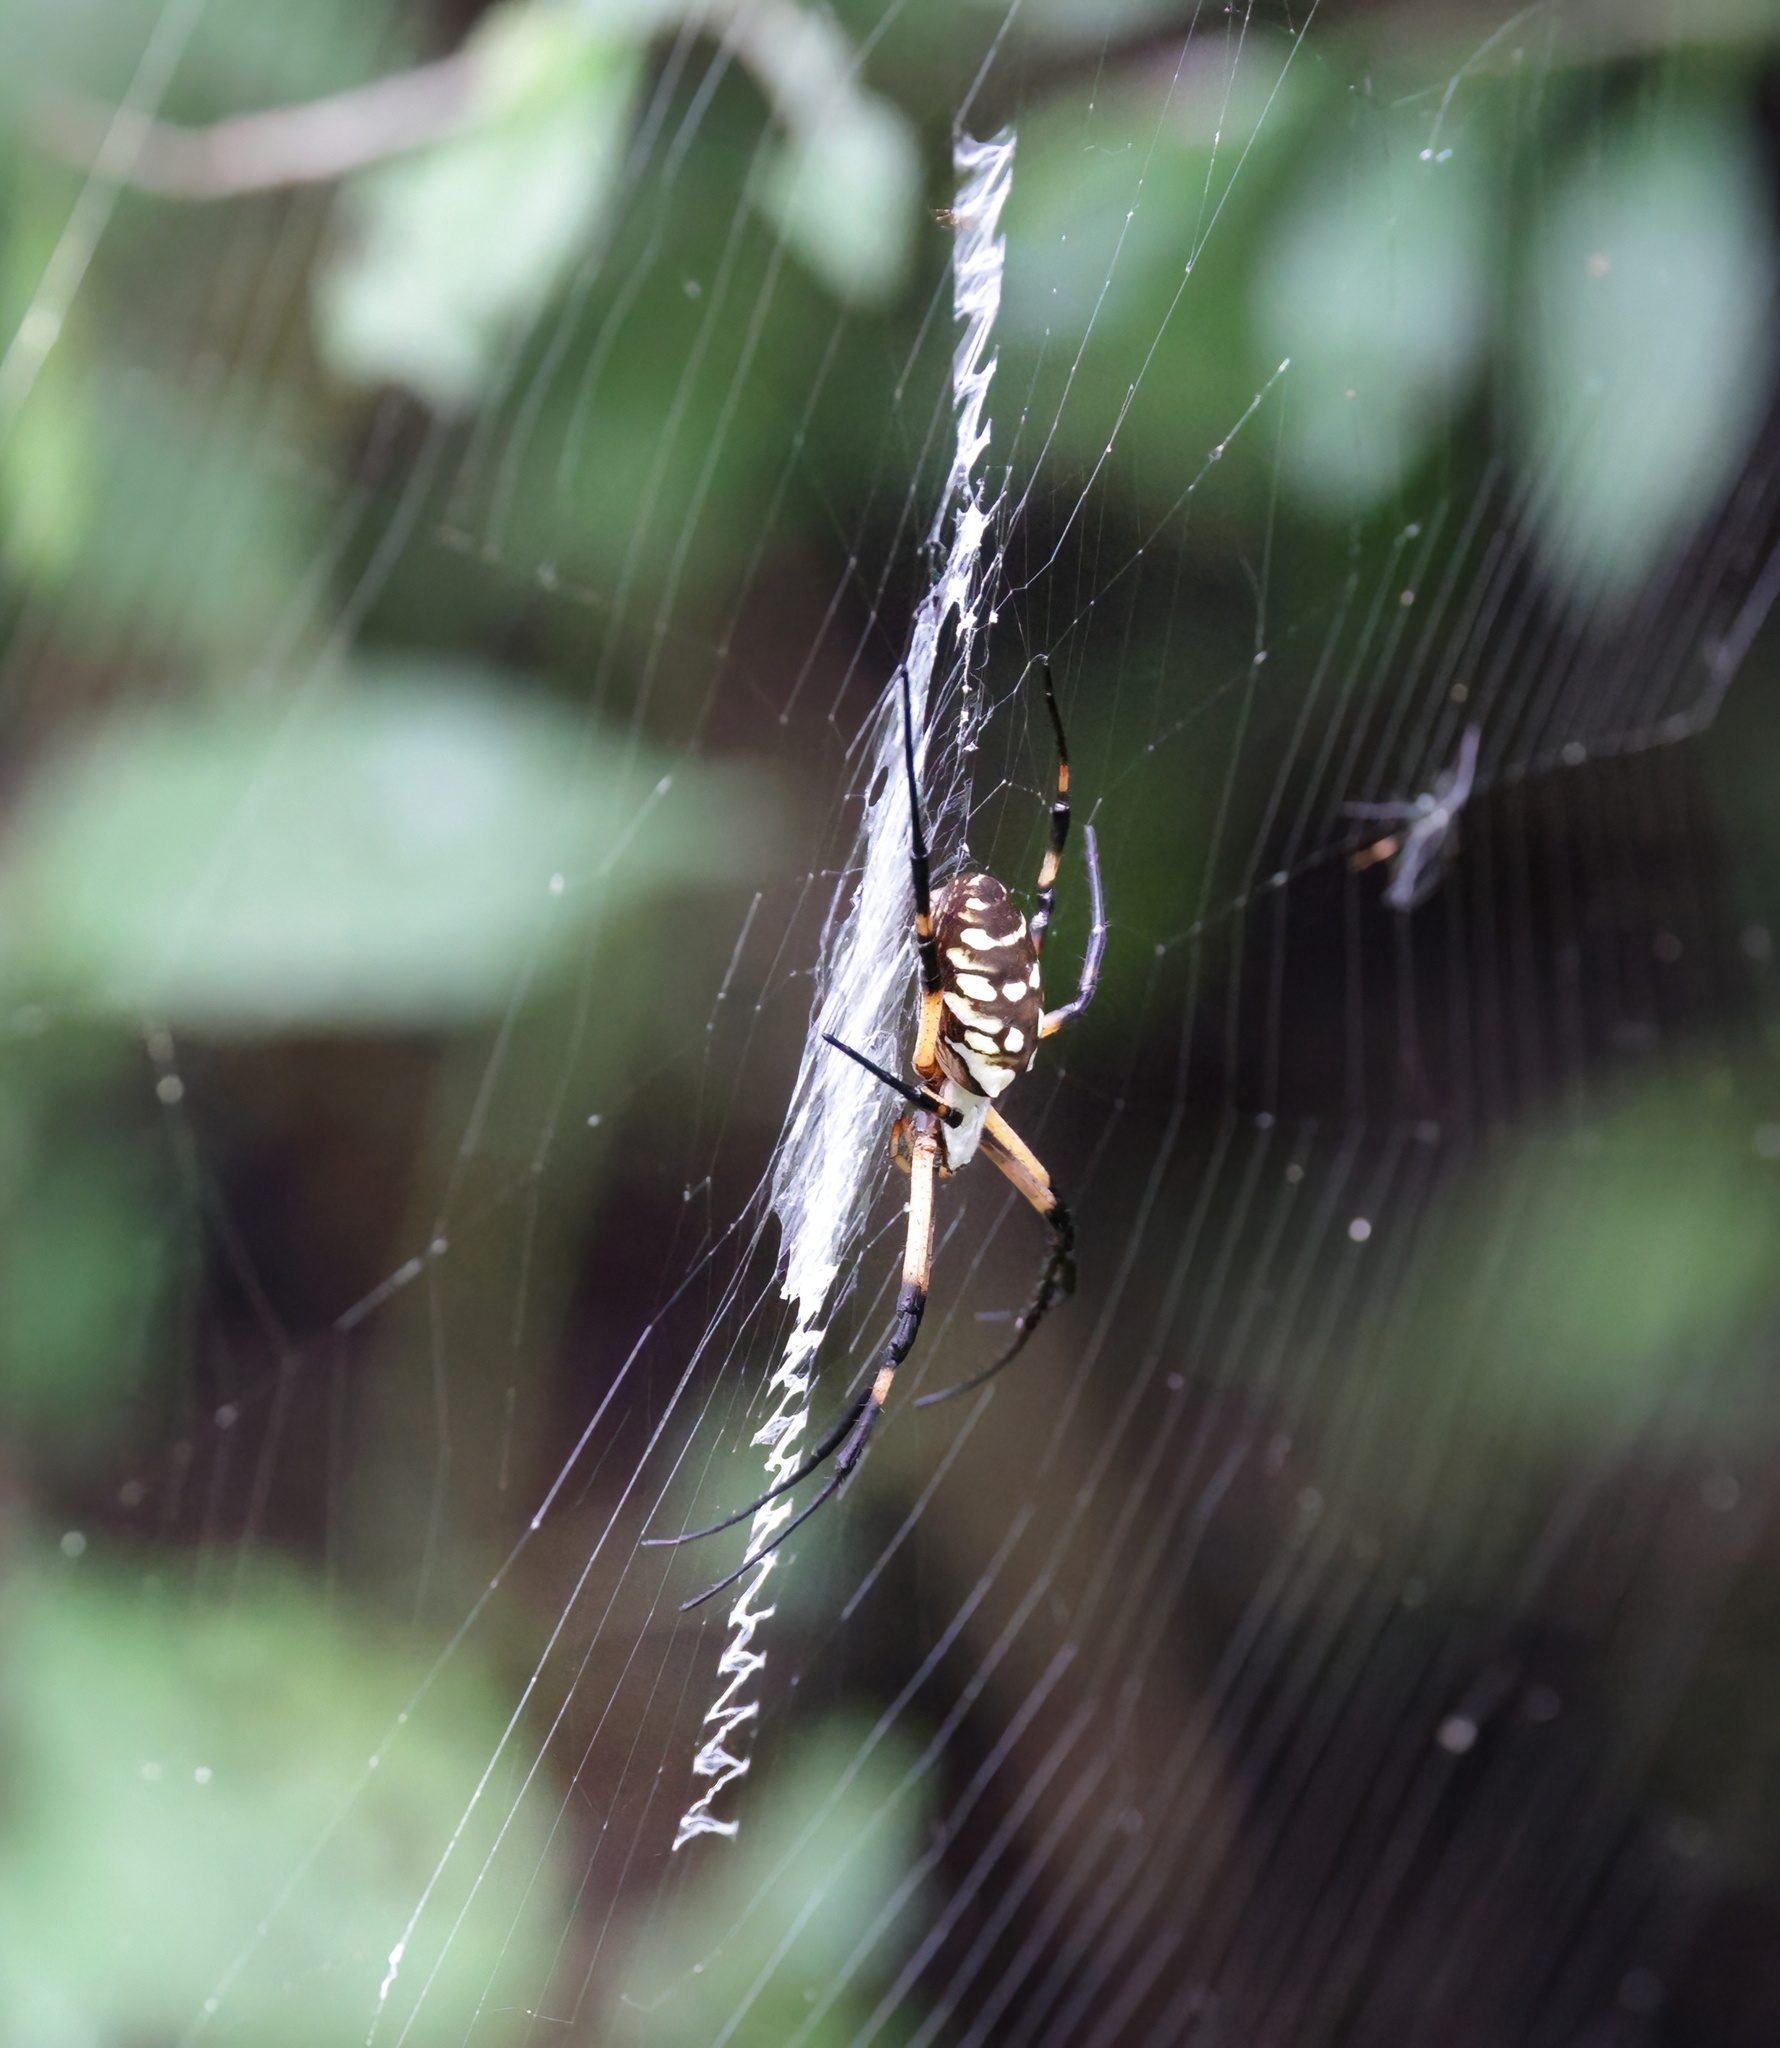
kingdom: Animalia
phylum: Arthropoda
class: Arachnida
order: Araneae
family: Araneidae
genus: Argiope
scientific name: Argiope aurantia
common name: Orb weavers
